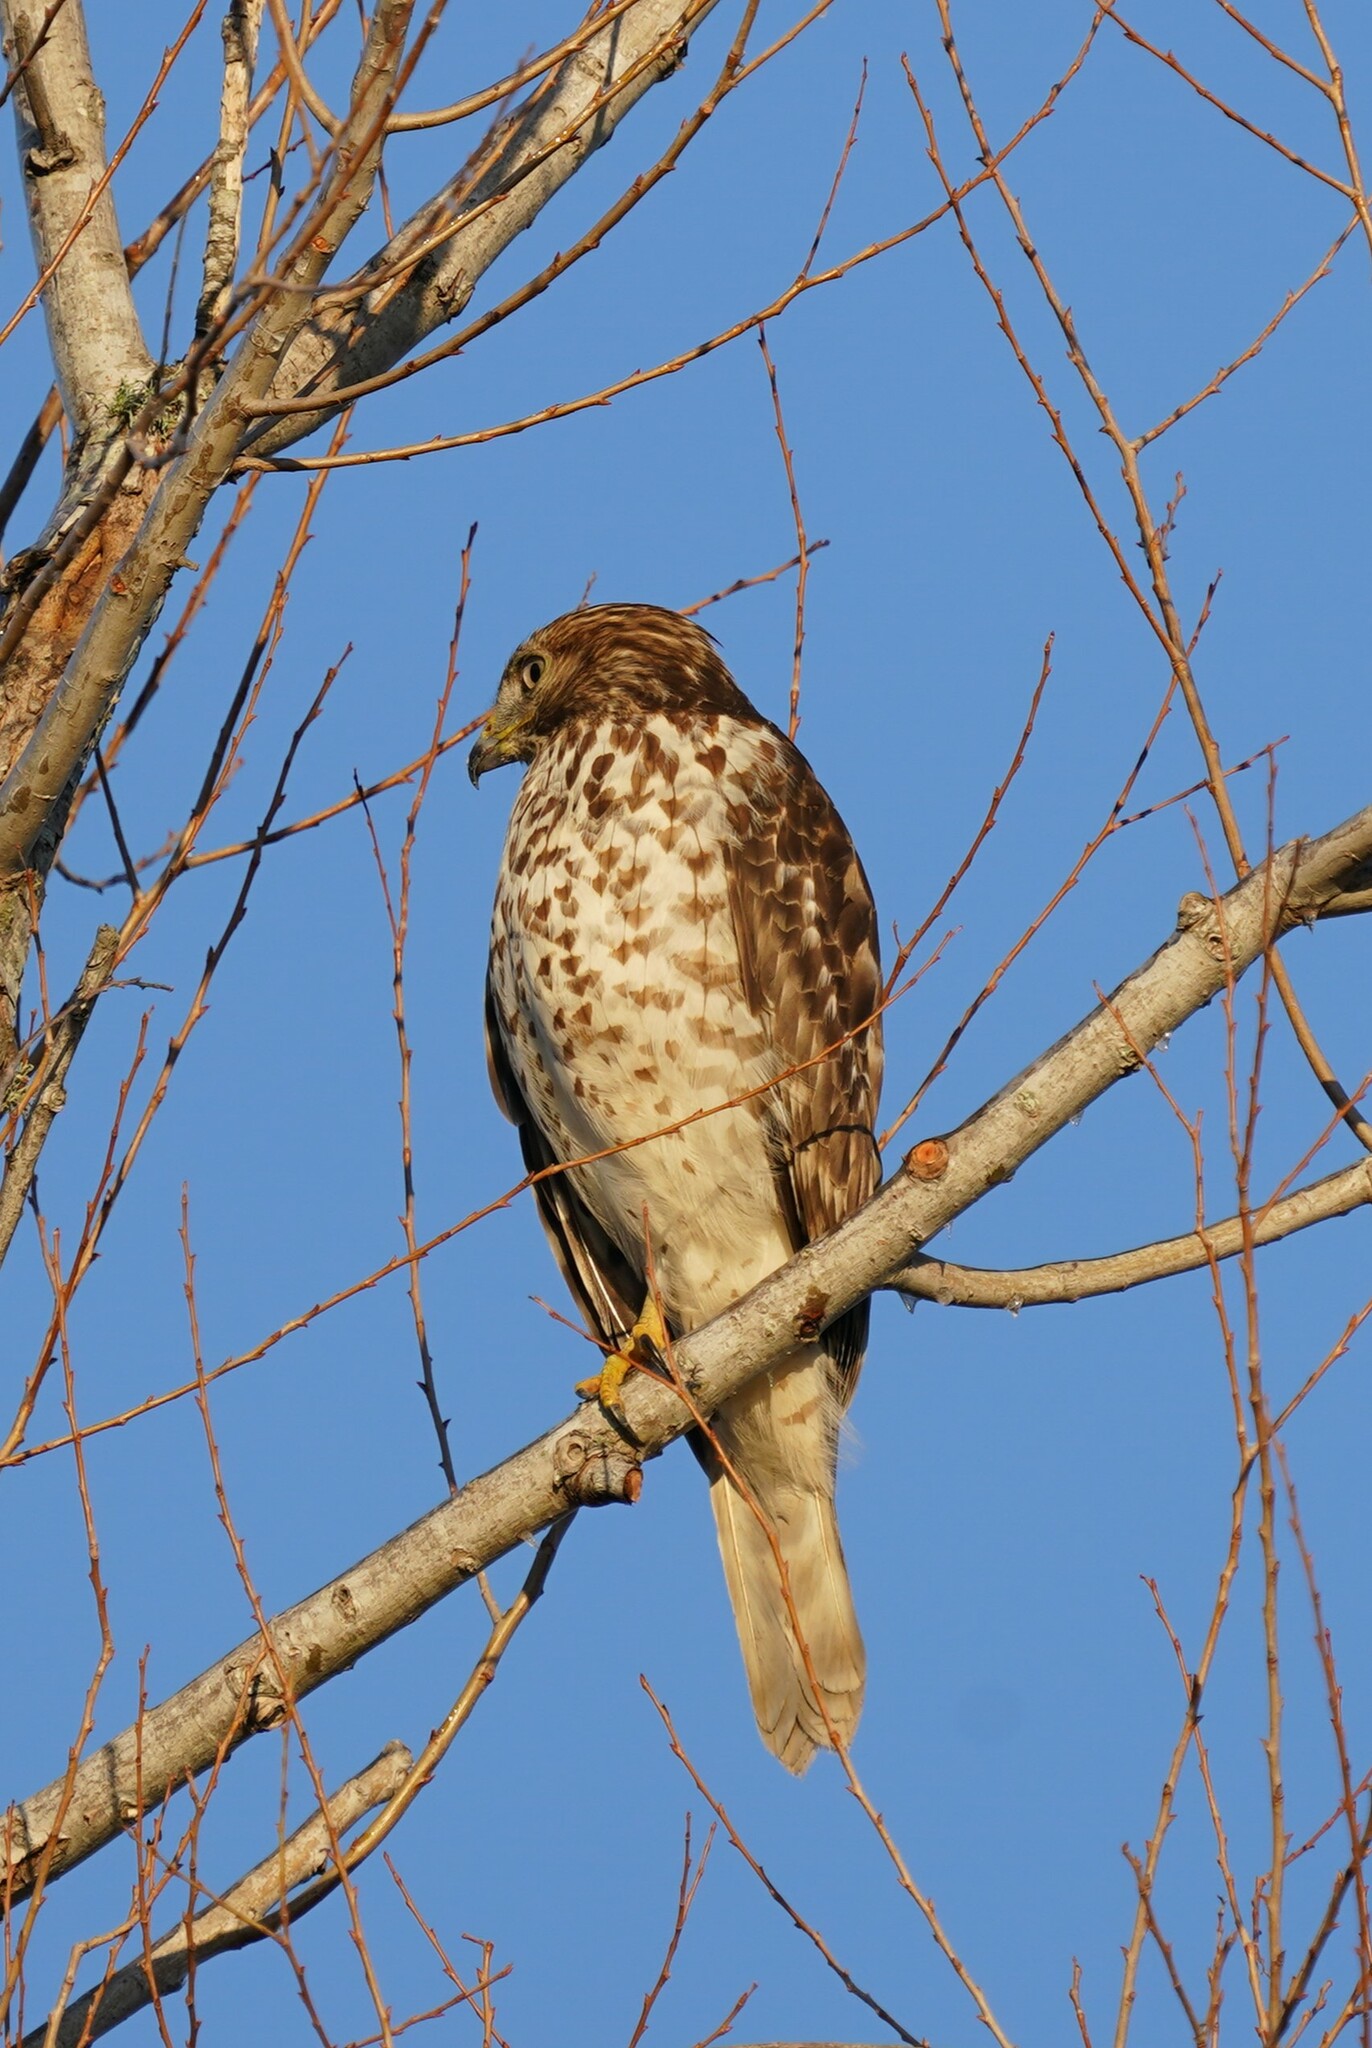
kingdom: Animalia
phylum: Chordata
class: Aves
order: Accipitriformes
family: Accipitridae
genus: Buteo
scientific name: Buteo lineatus
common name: Red-shouldered hawk
